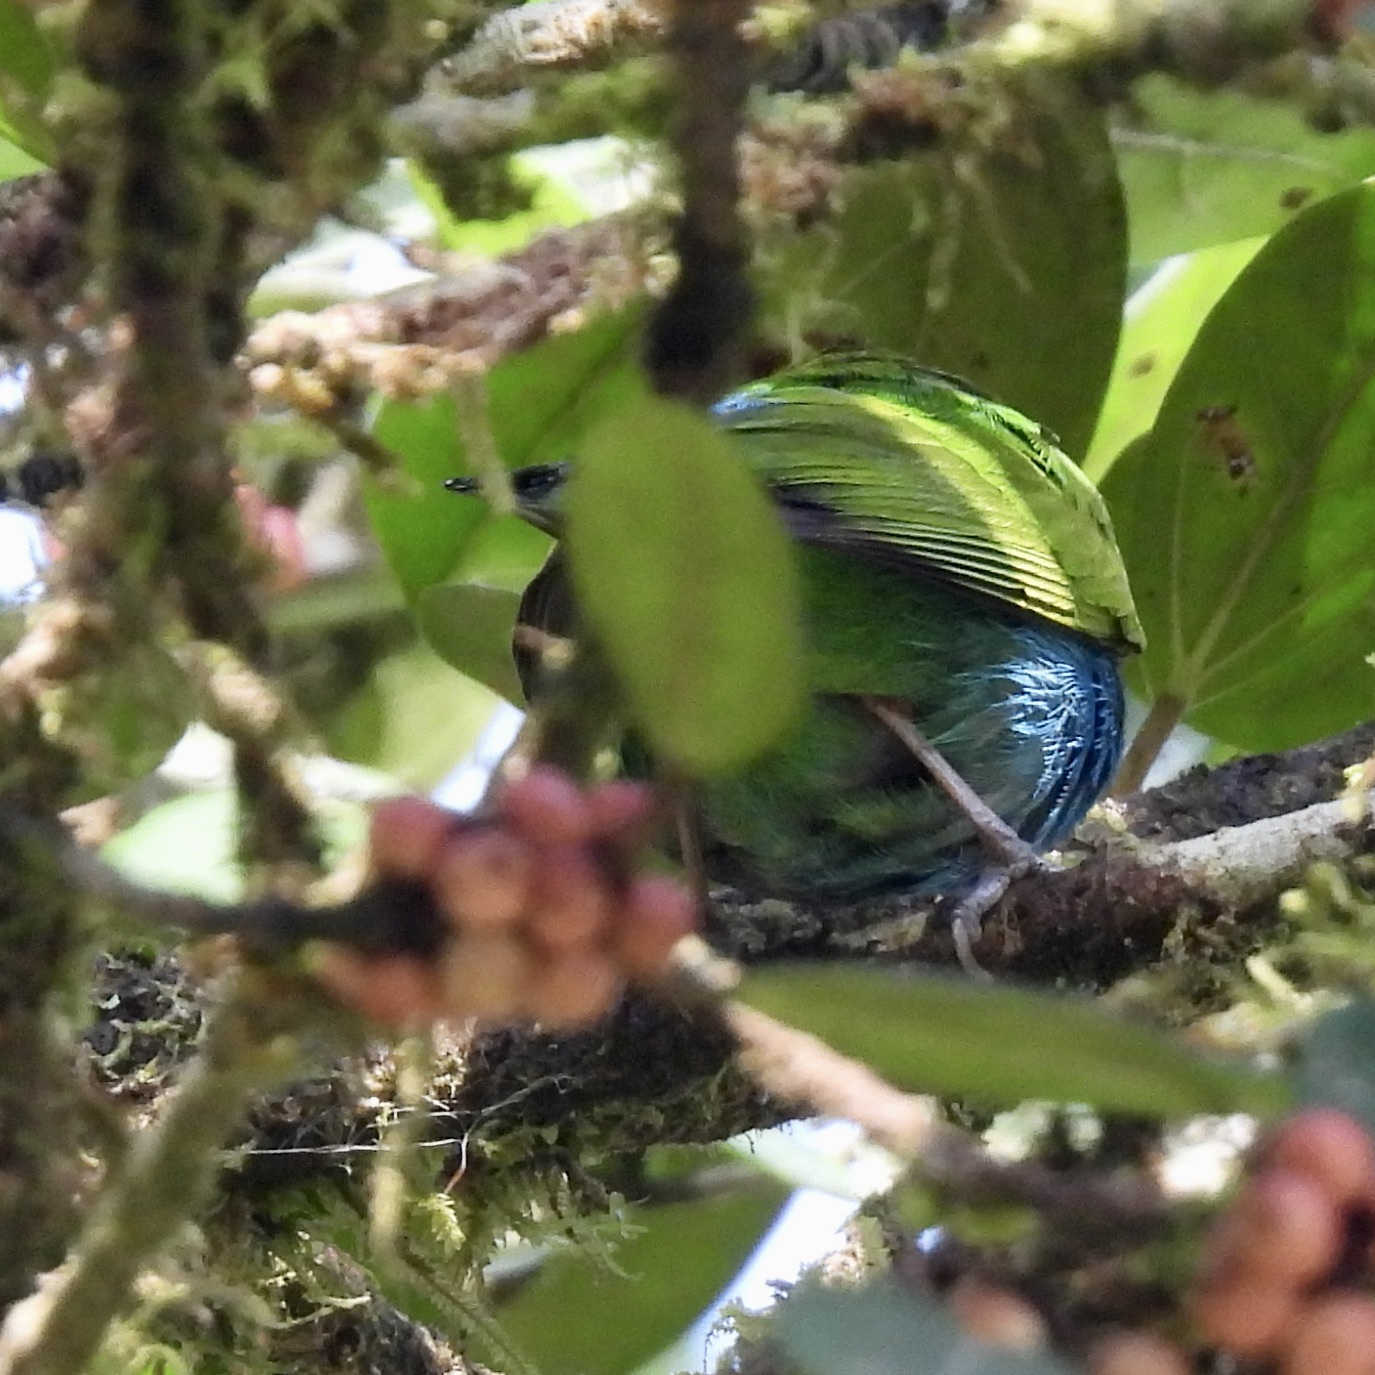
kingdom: Animalia
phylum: Chordata
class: Aves
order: Passeriformes
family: Thraupidae
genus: Tangara
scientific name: Tangara gyrola
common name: Bay-headed tanager
